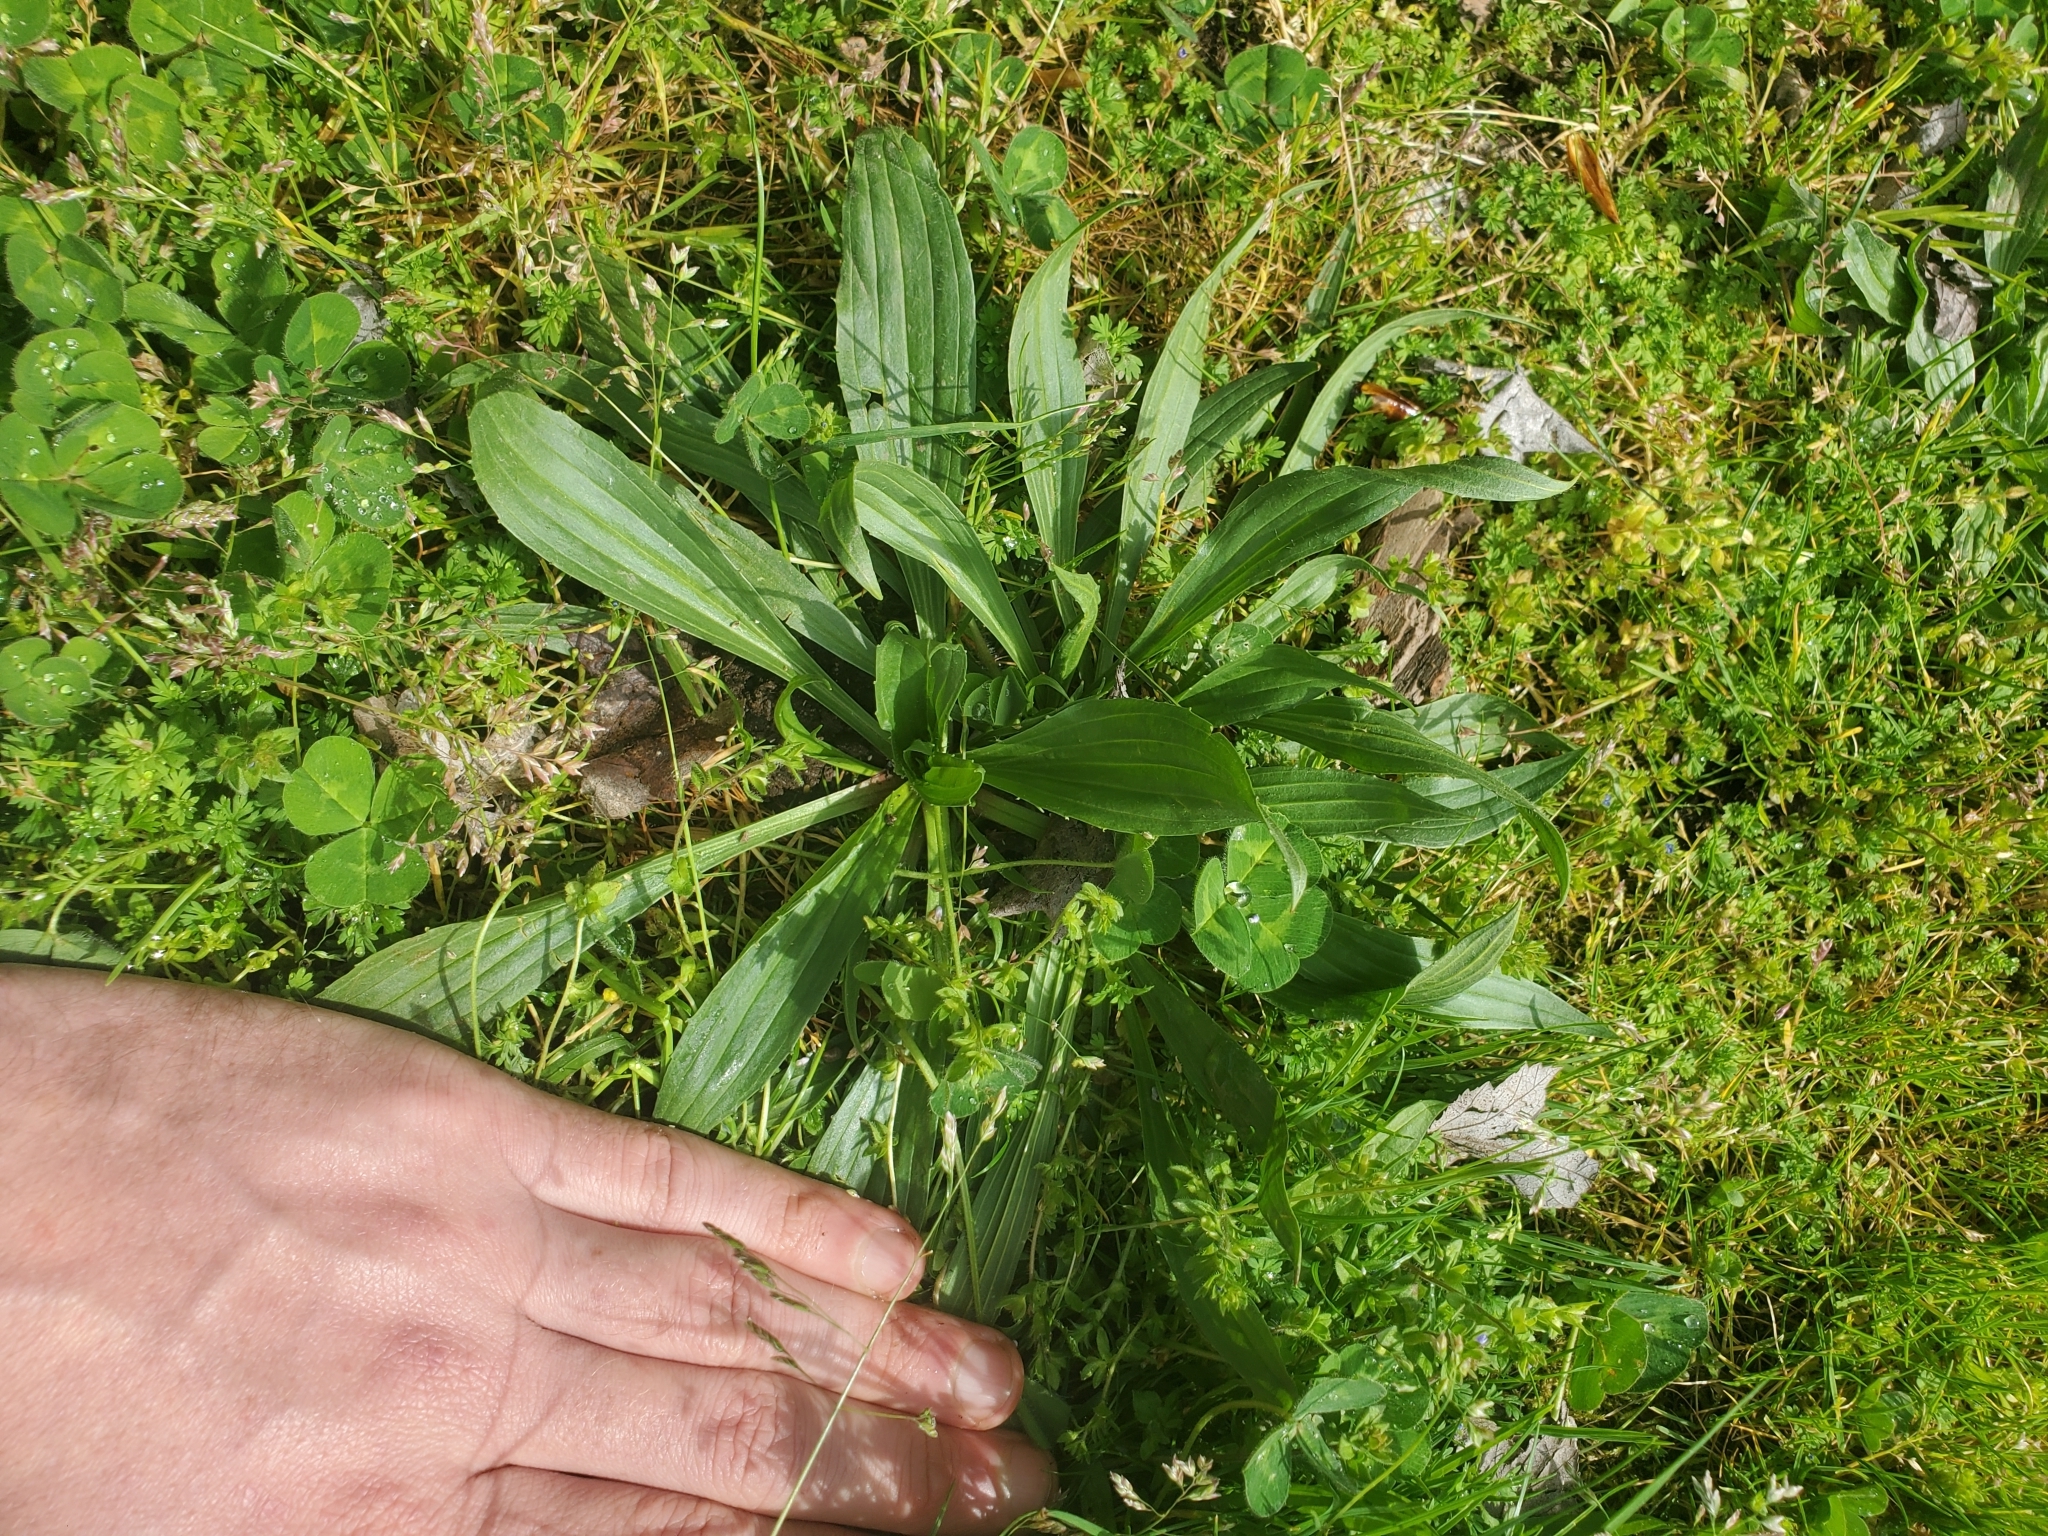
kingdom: Plantae
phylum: Tracheophyta
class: Magnoliopsida
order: Lamiales
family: Plantaginaceae
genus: Plantago
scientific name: Plantago lanceolata
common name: Ribwort plantain
